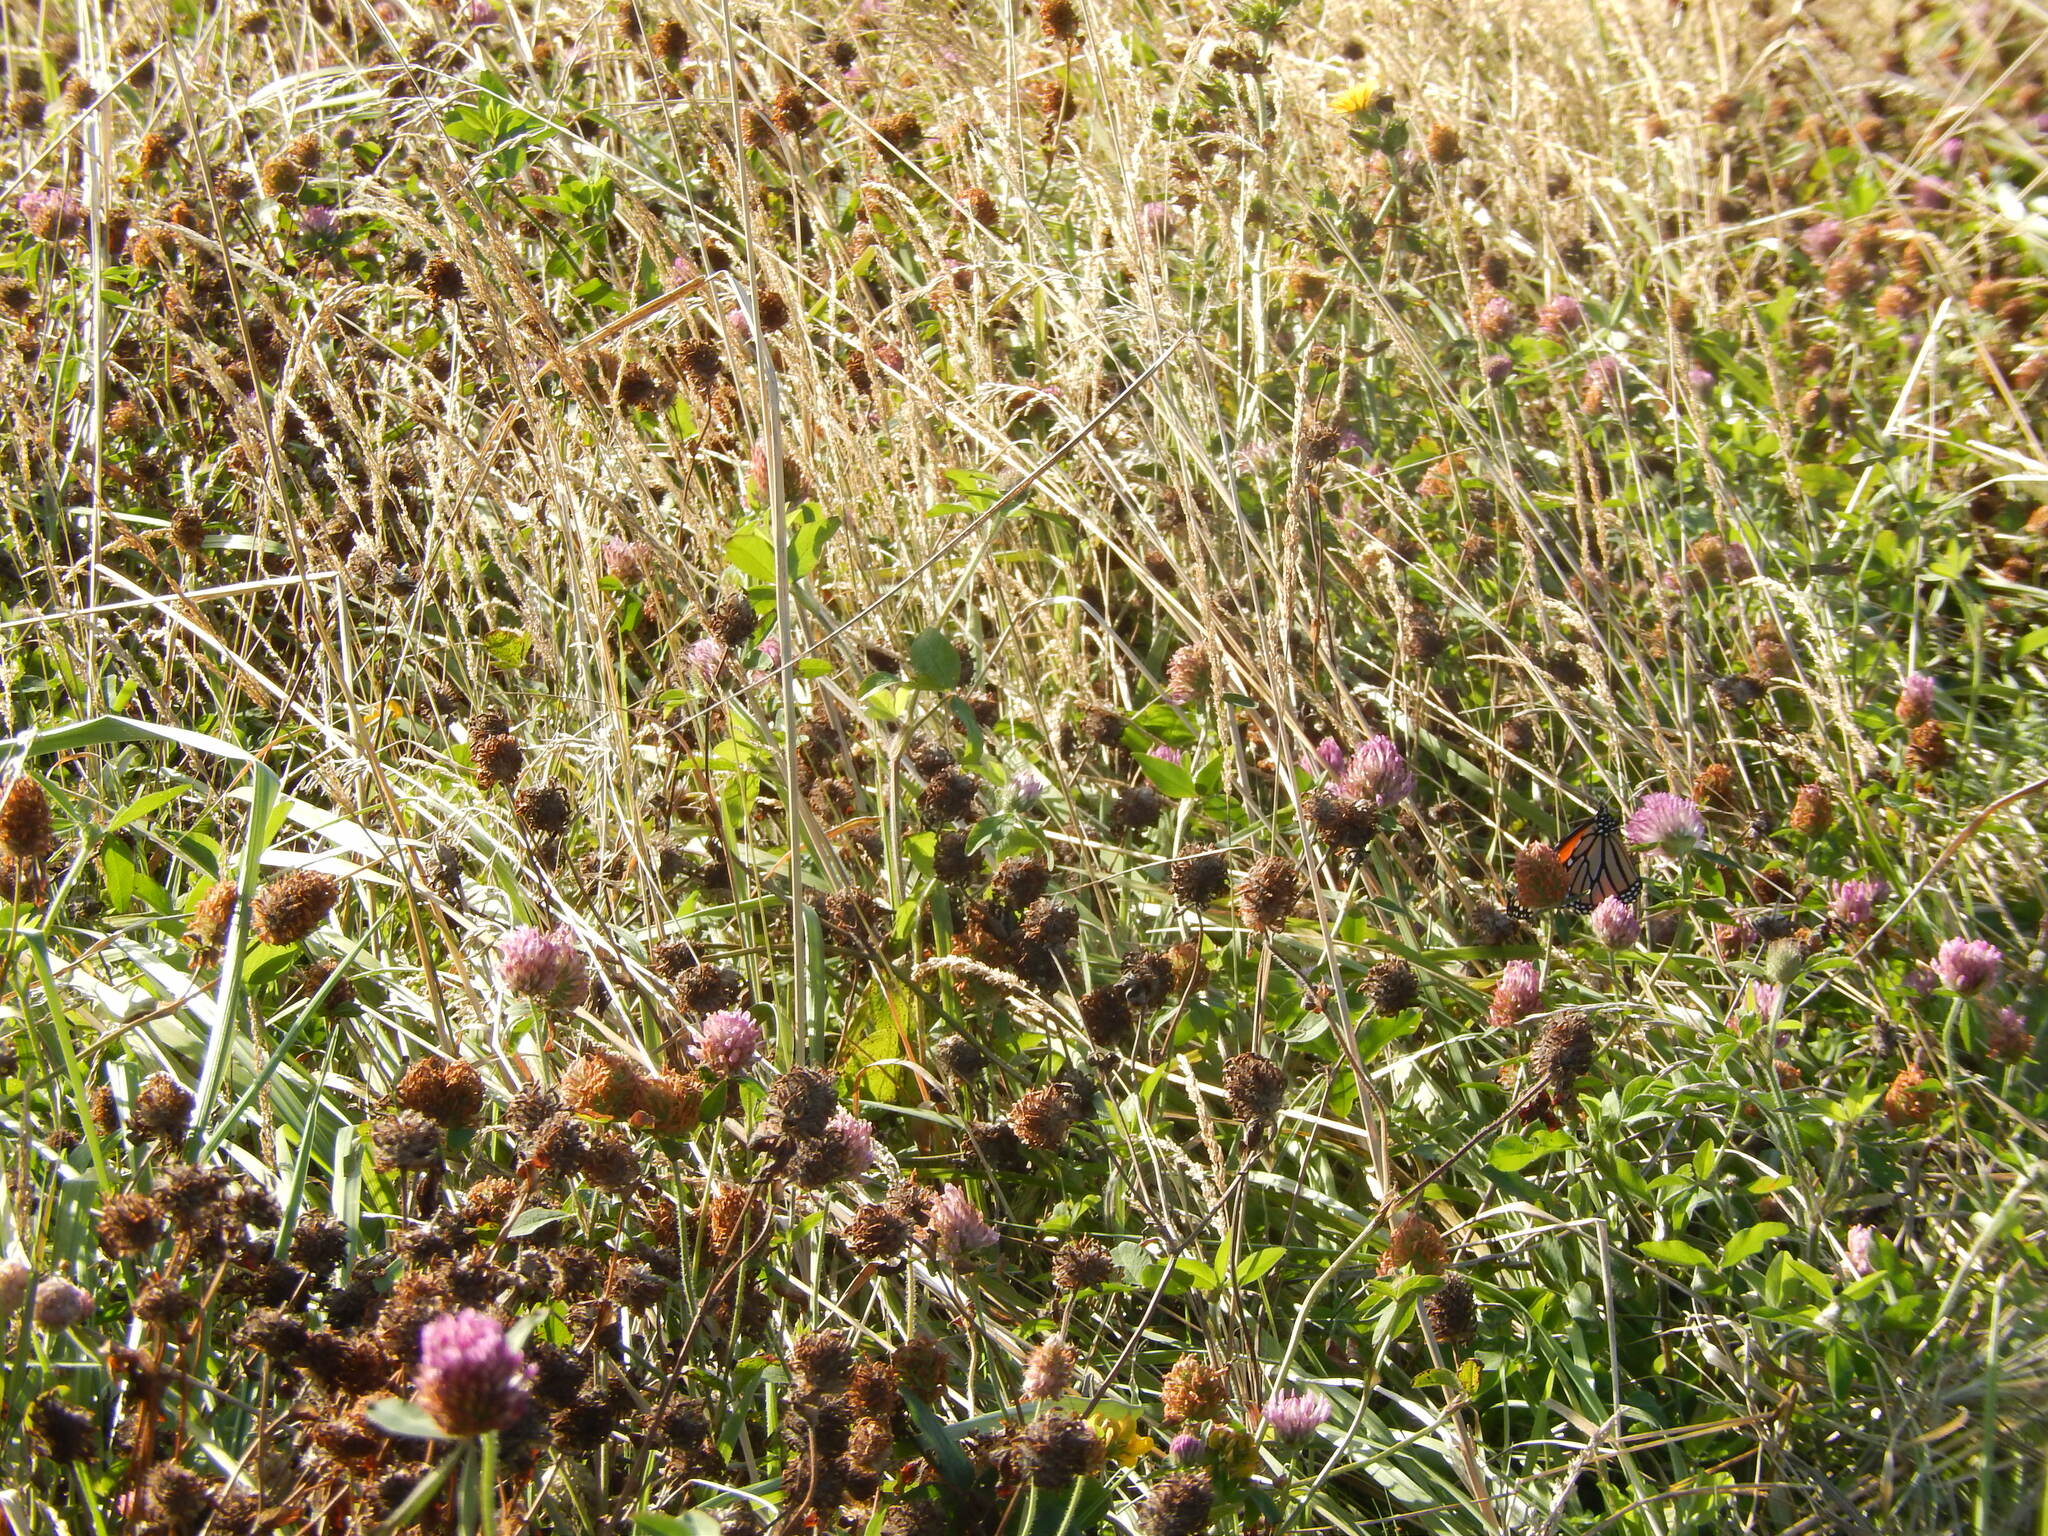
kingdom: Animalia
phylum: Arthropoda
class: Insecta
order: Lepidoptera
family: Nymphalidae
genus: Danaus
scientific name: Danaus plexippus
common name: Monarch
